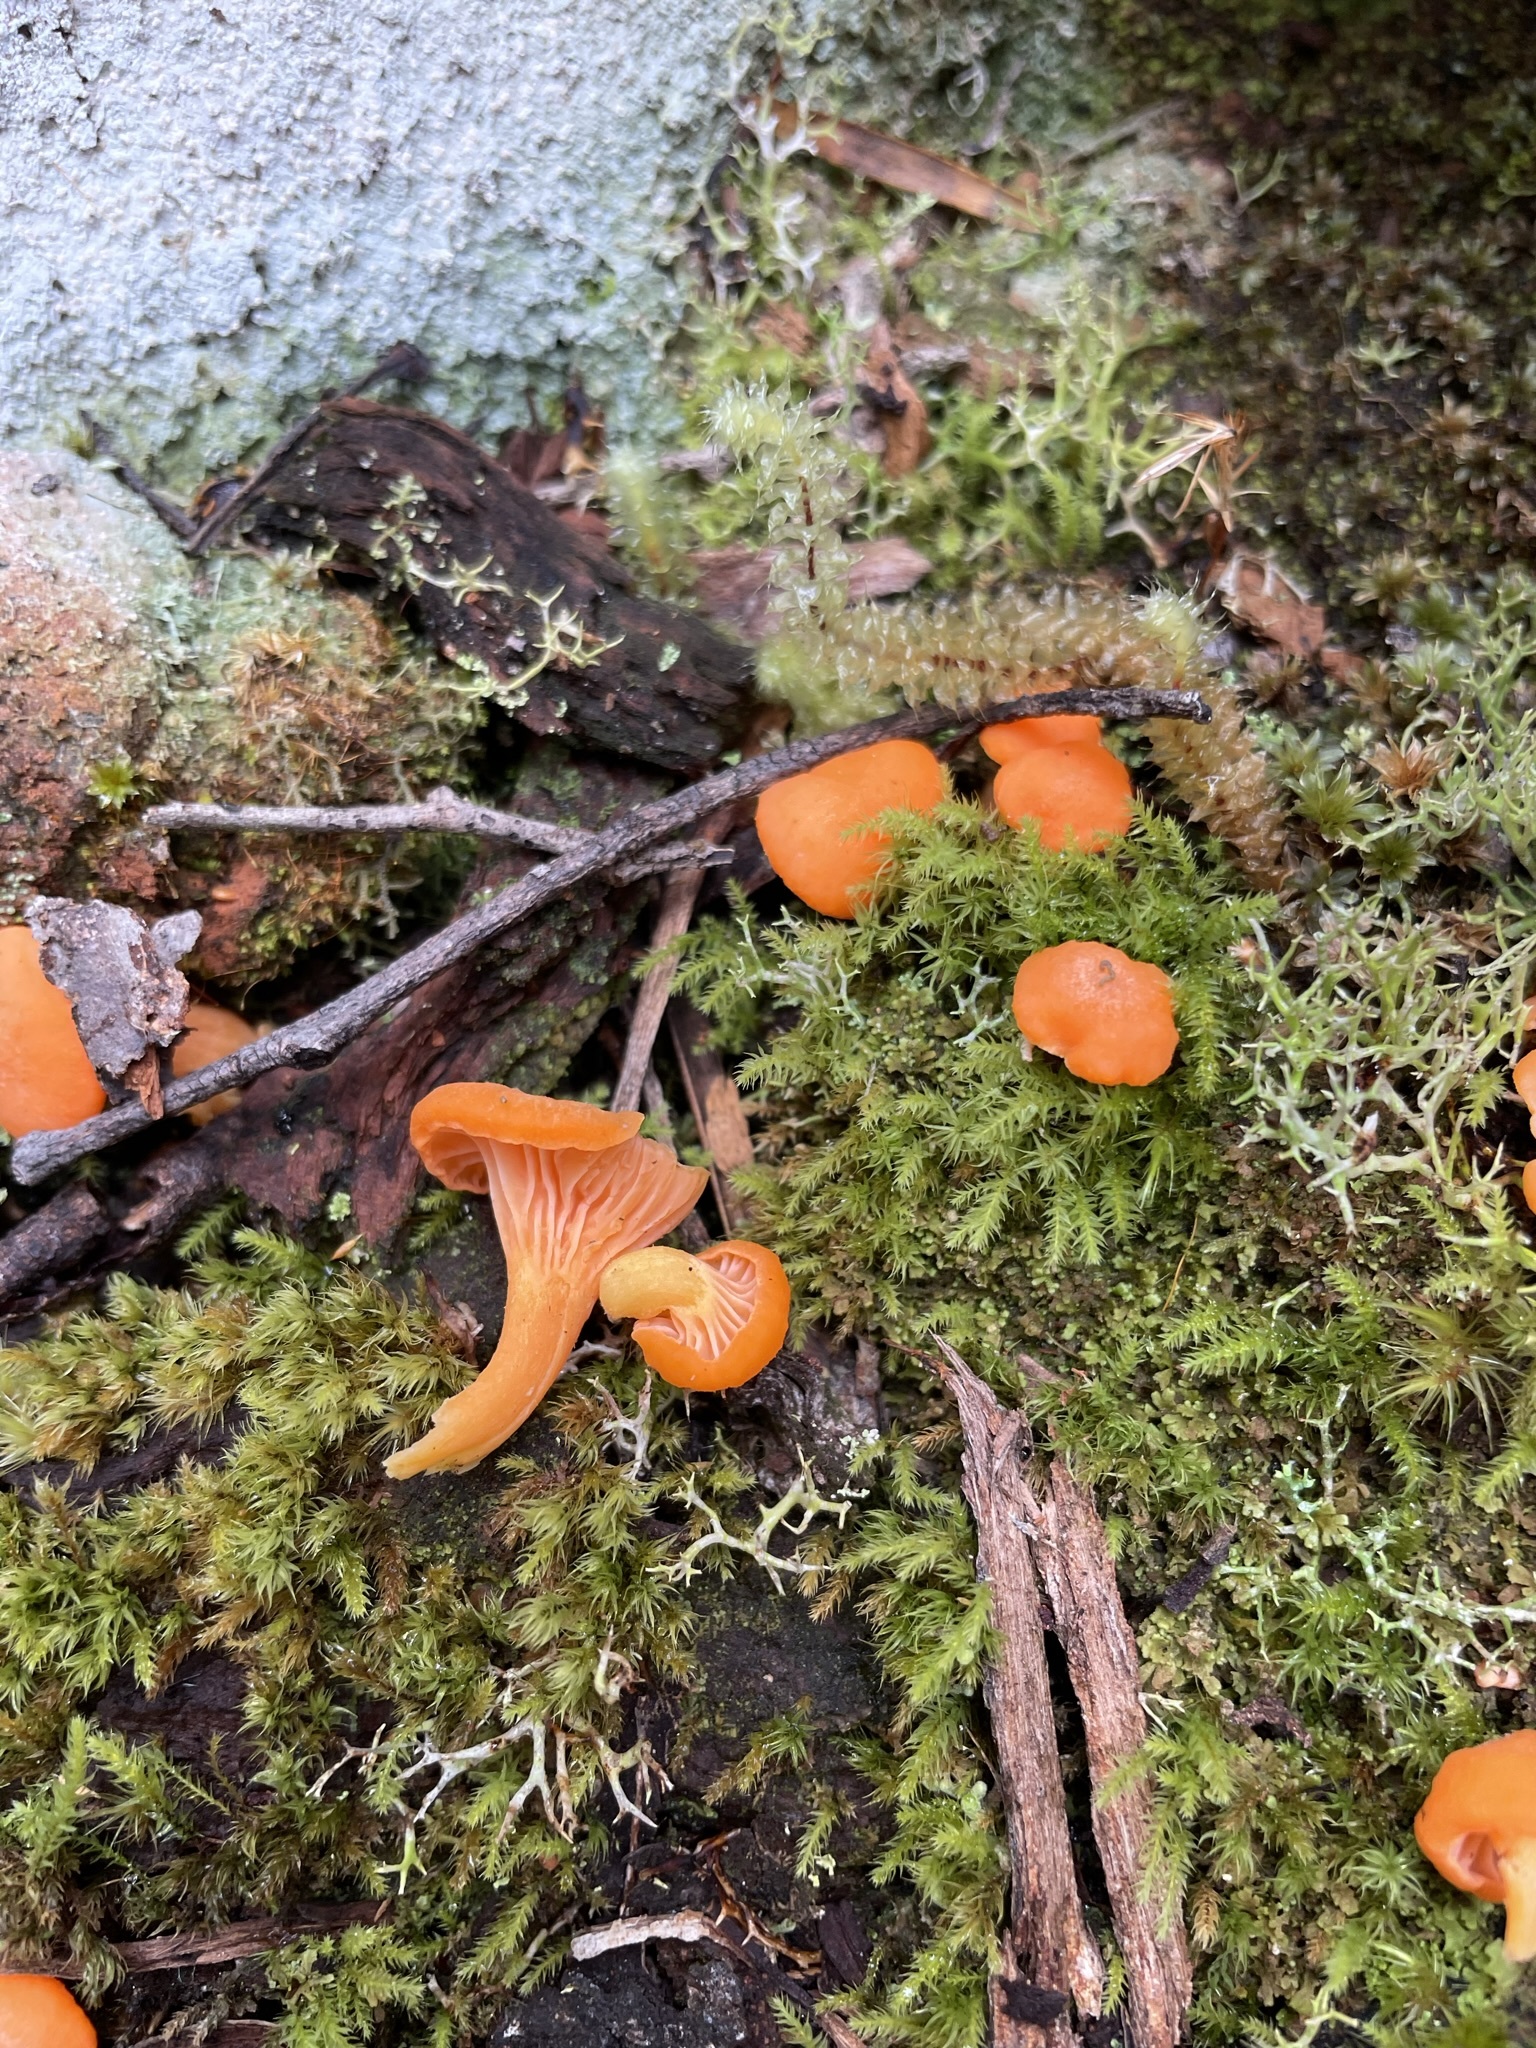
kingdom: Fungi
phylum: Basidiomycota
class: Agaricomycetes
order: Cantharellales
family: Hydnaceae
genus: Cantharellus
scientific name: Cantharellus
